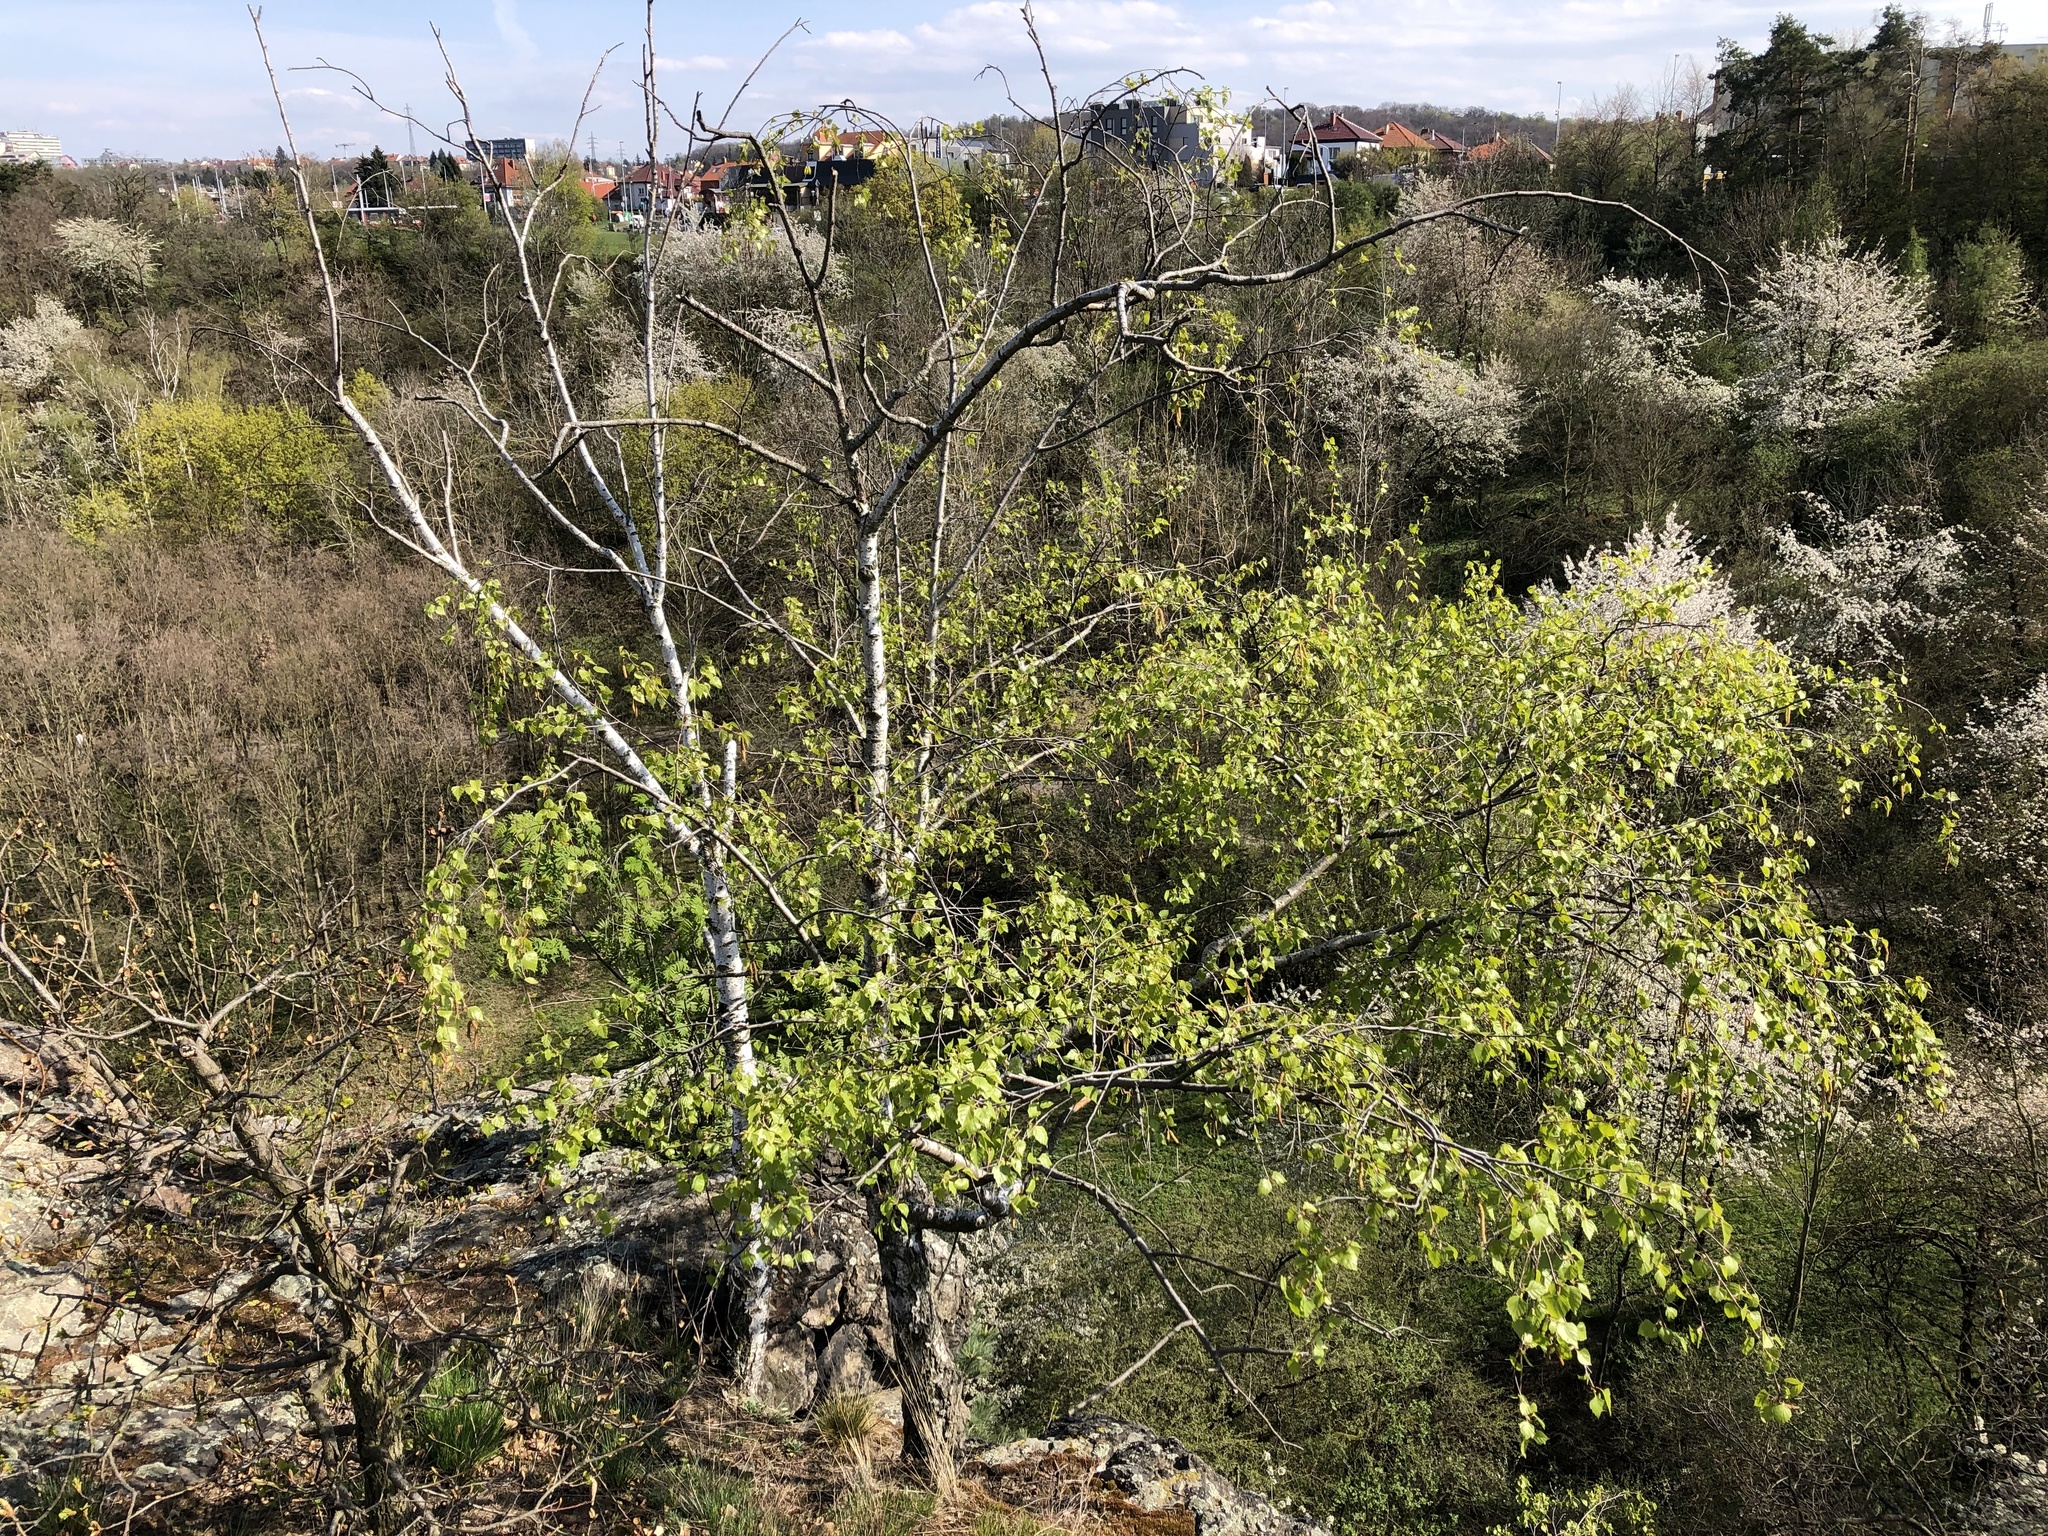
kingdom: Plantae
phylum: Tracheophyta
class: Magnoliopsida
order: Fagales
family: Betulaceae
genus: Betula
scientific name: Betula pendula
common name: Silver birch
